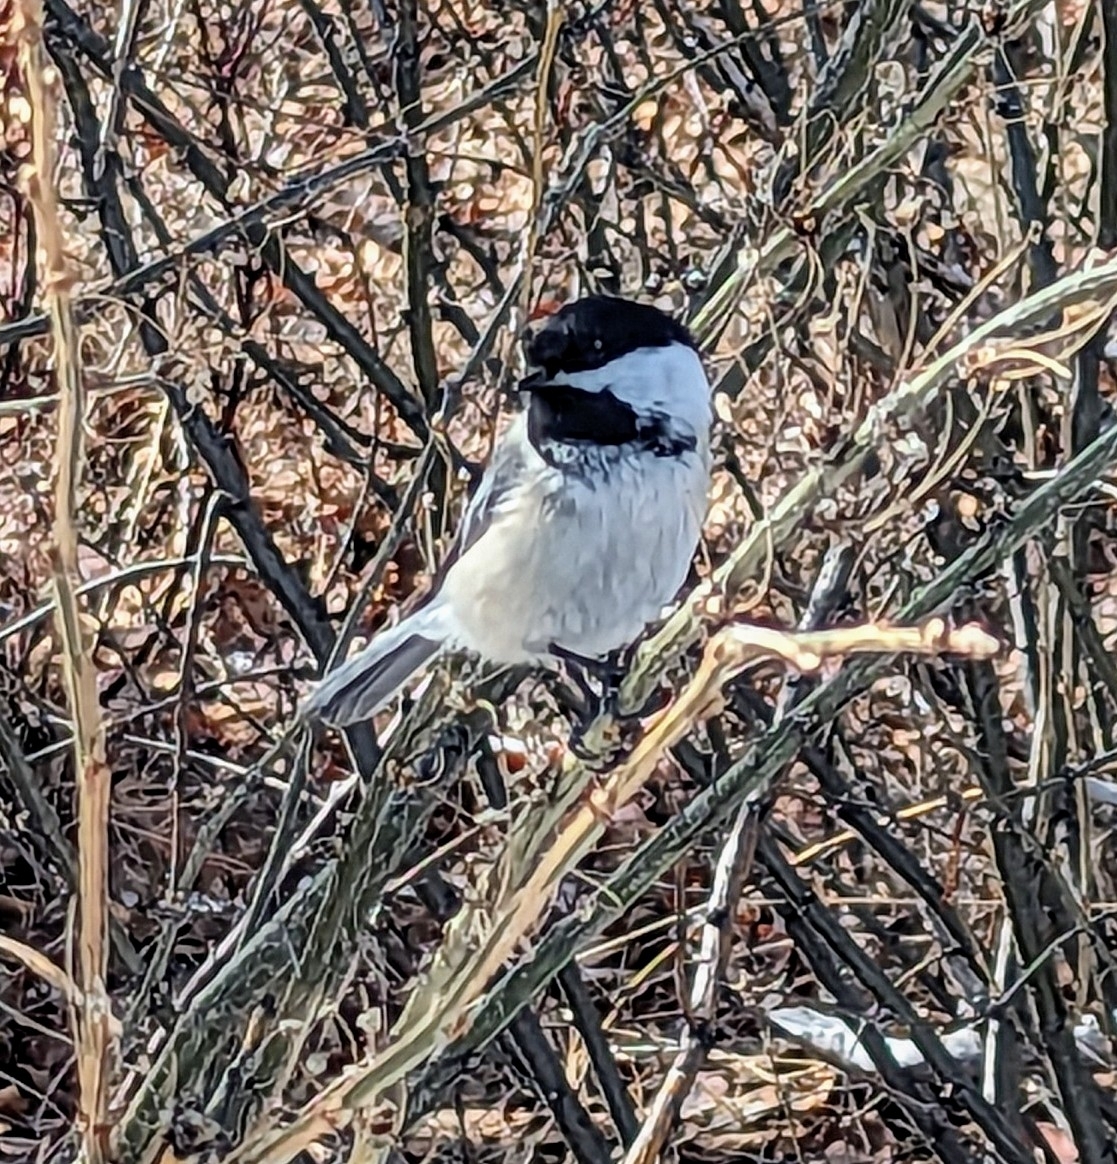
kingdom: Animalia
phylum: Chordata
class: Aves
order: Passeriformes
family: Paridae
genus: Poecile
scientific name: Poecile atricapillus
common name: Black-capped chickadee
